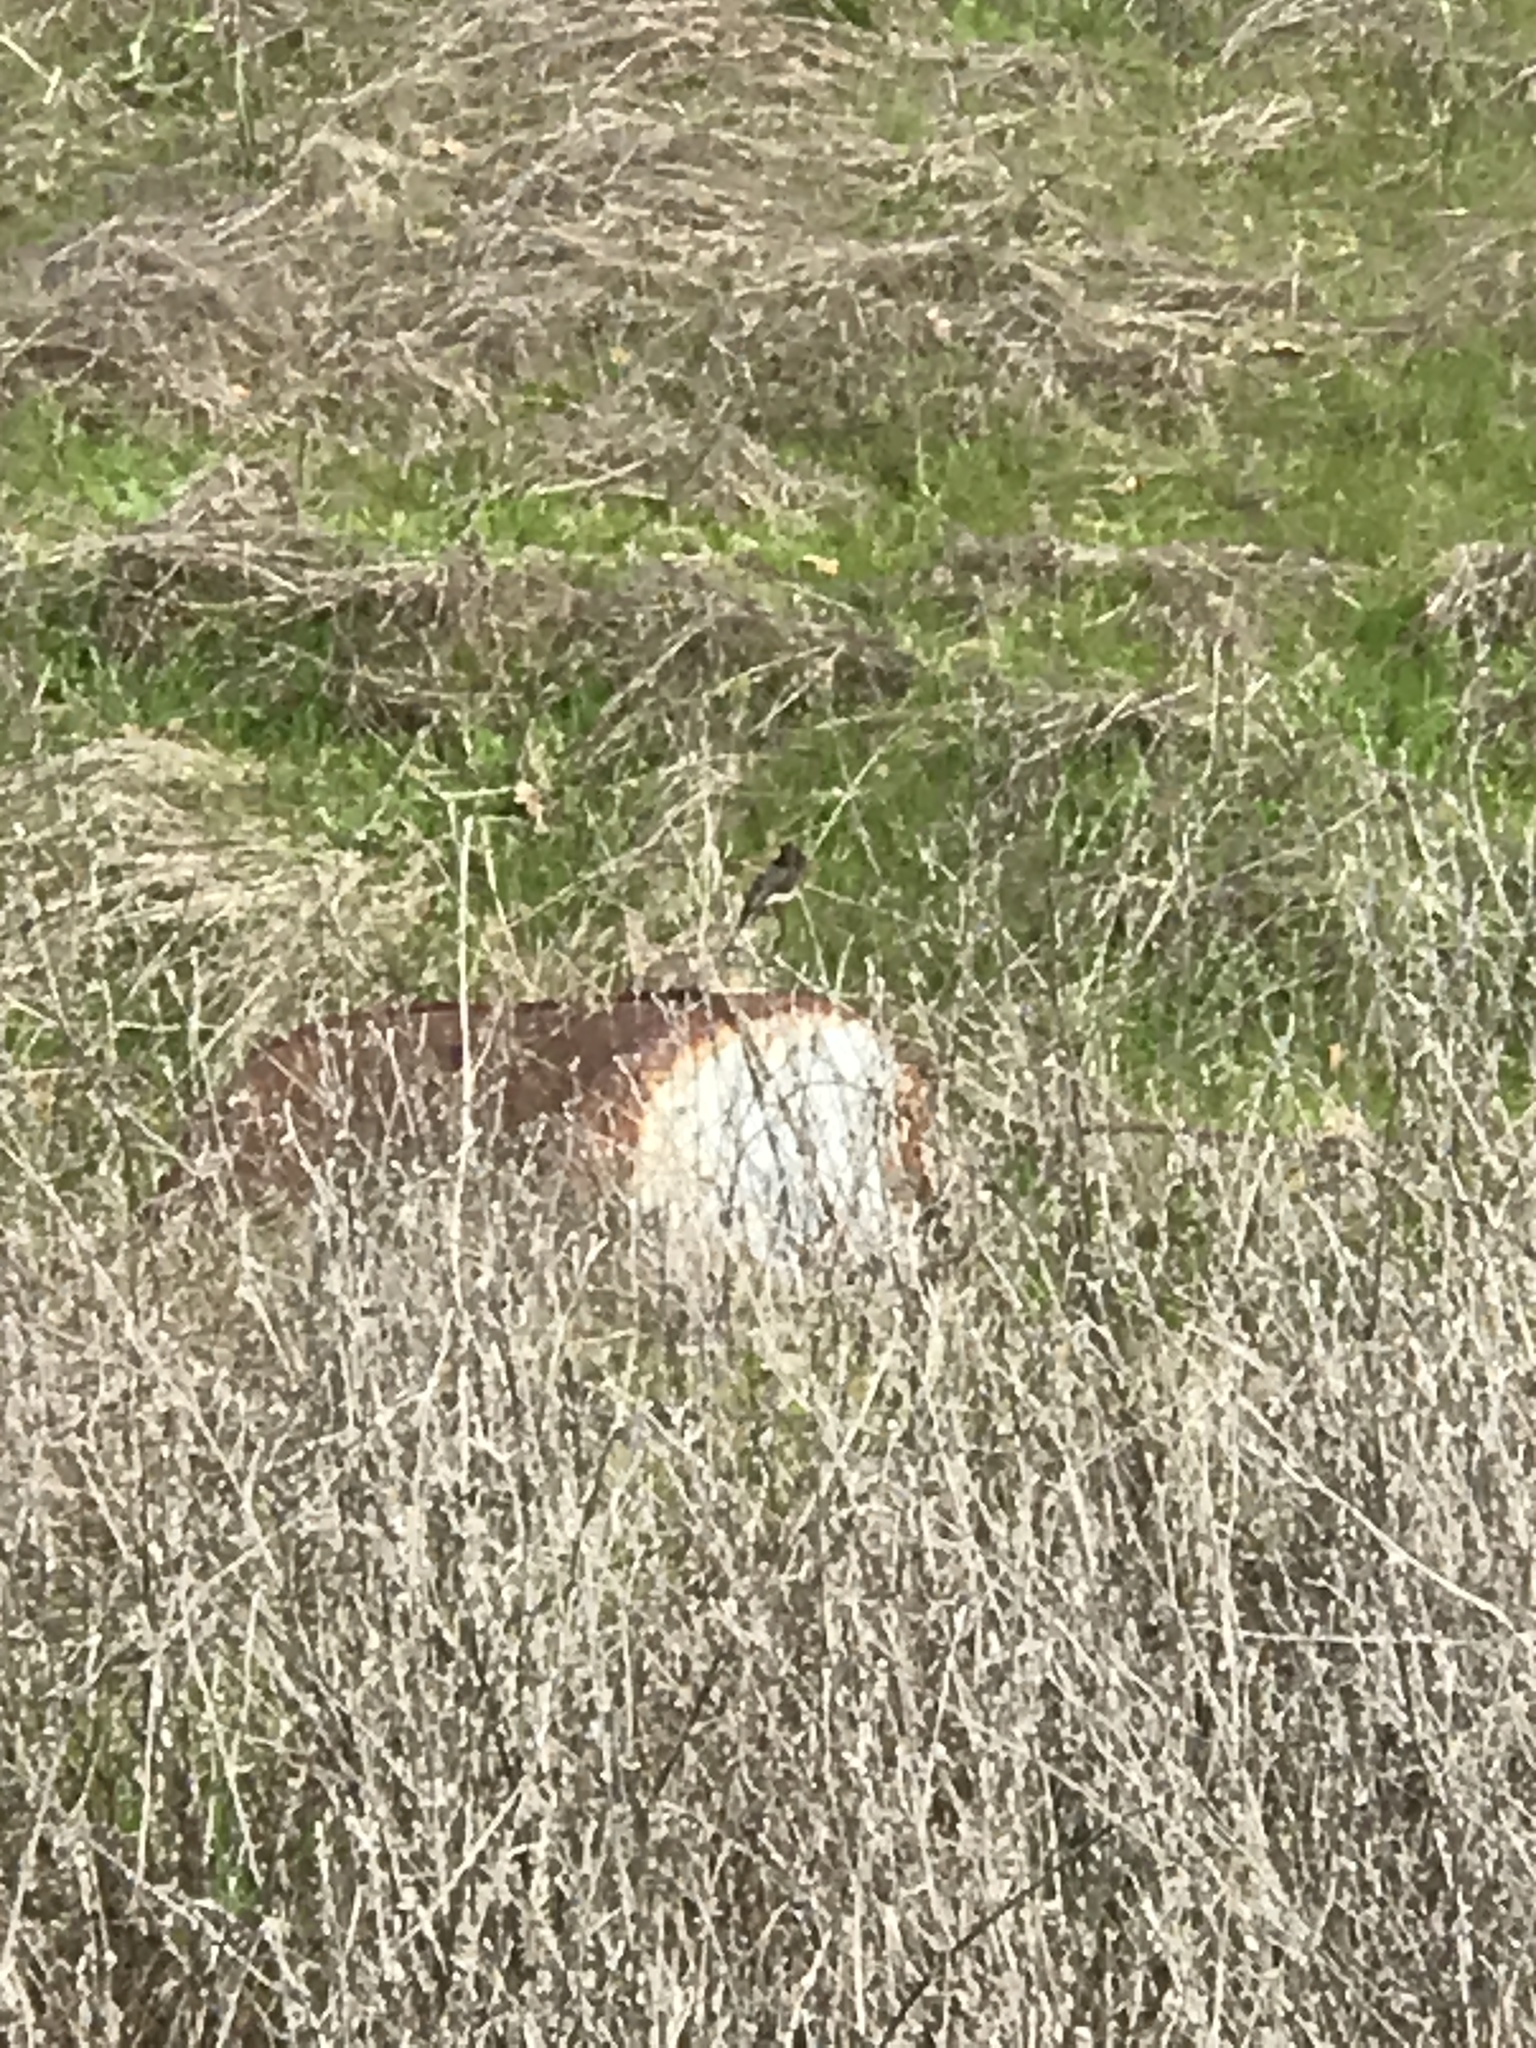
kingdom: Animalia
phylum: Chordata
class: Aves
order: Passeriformes
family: Tyrannidae
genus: Sayornis
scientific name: Sayornis nigricans
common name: Black phoebe
